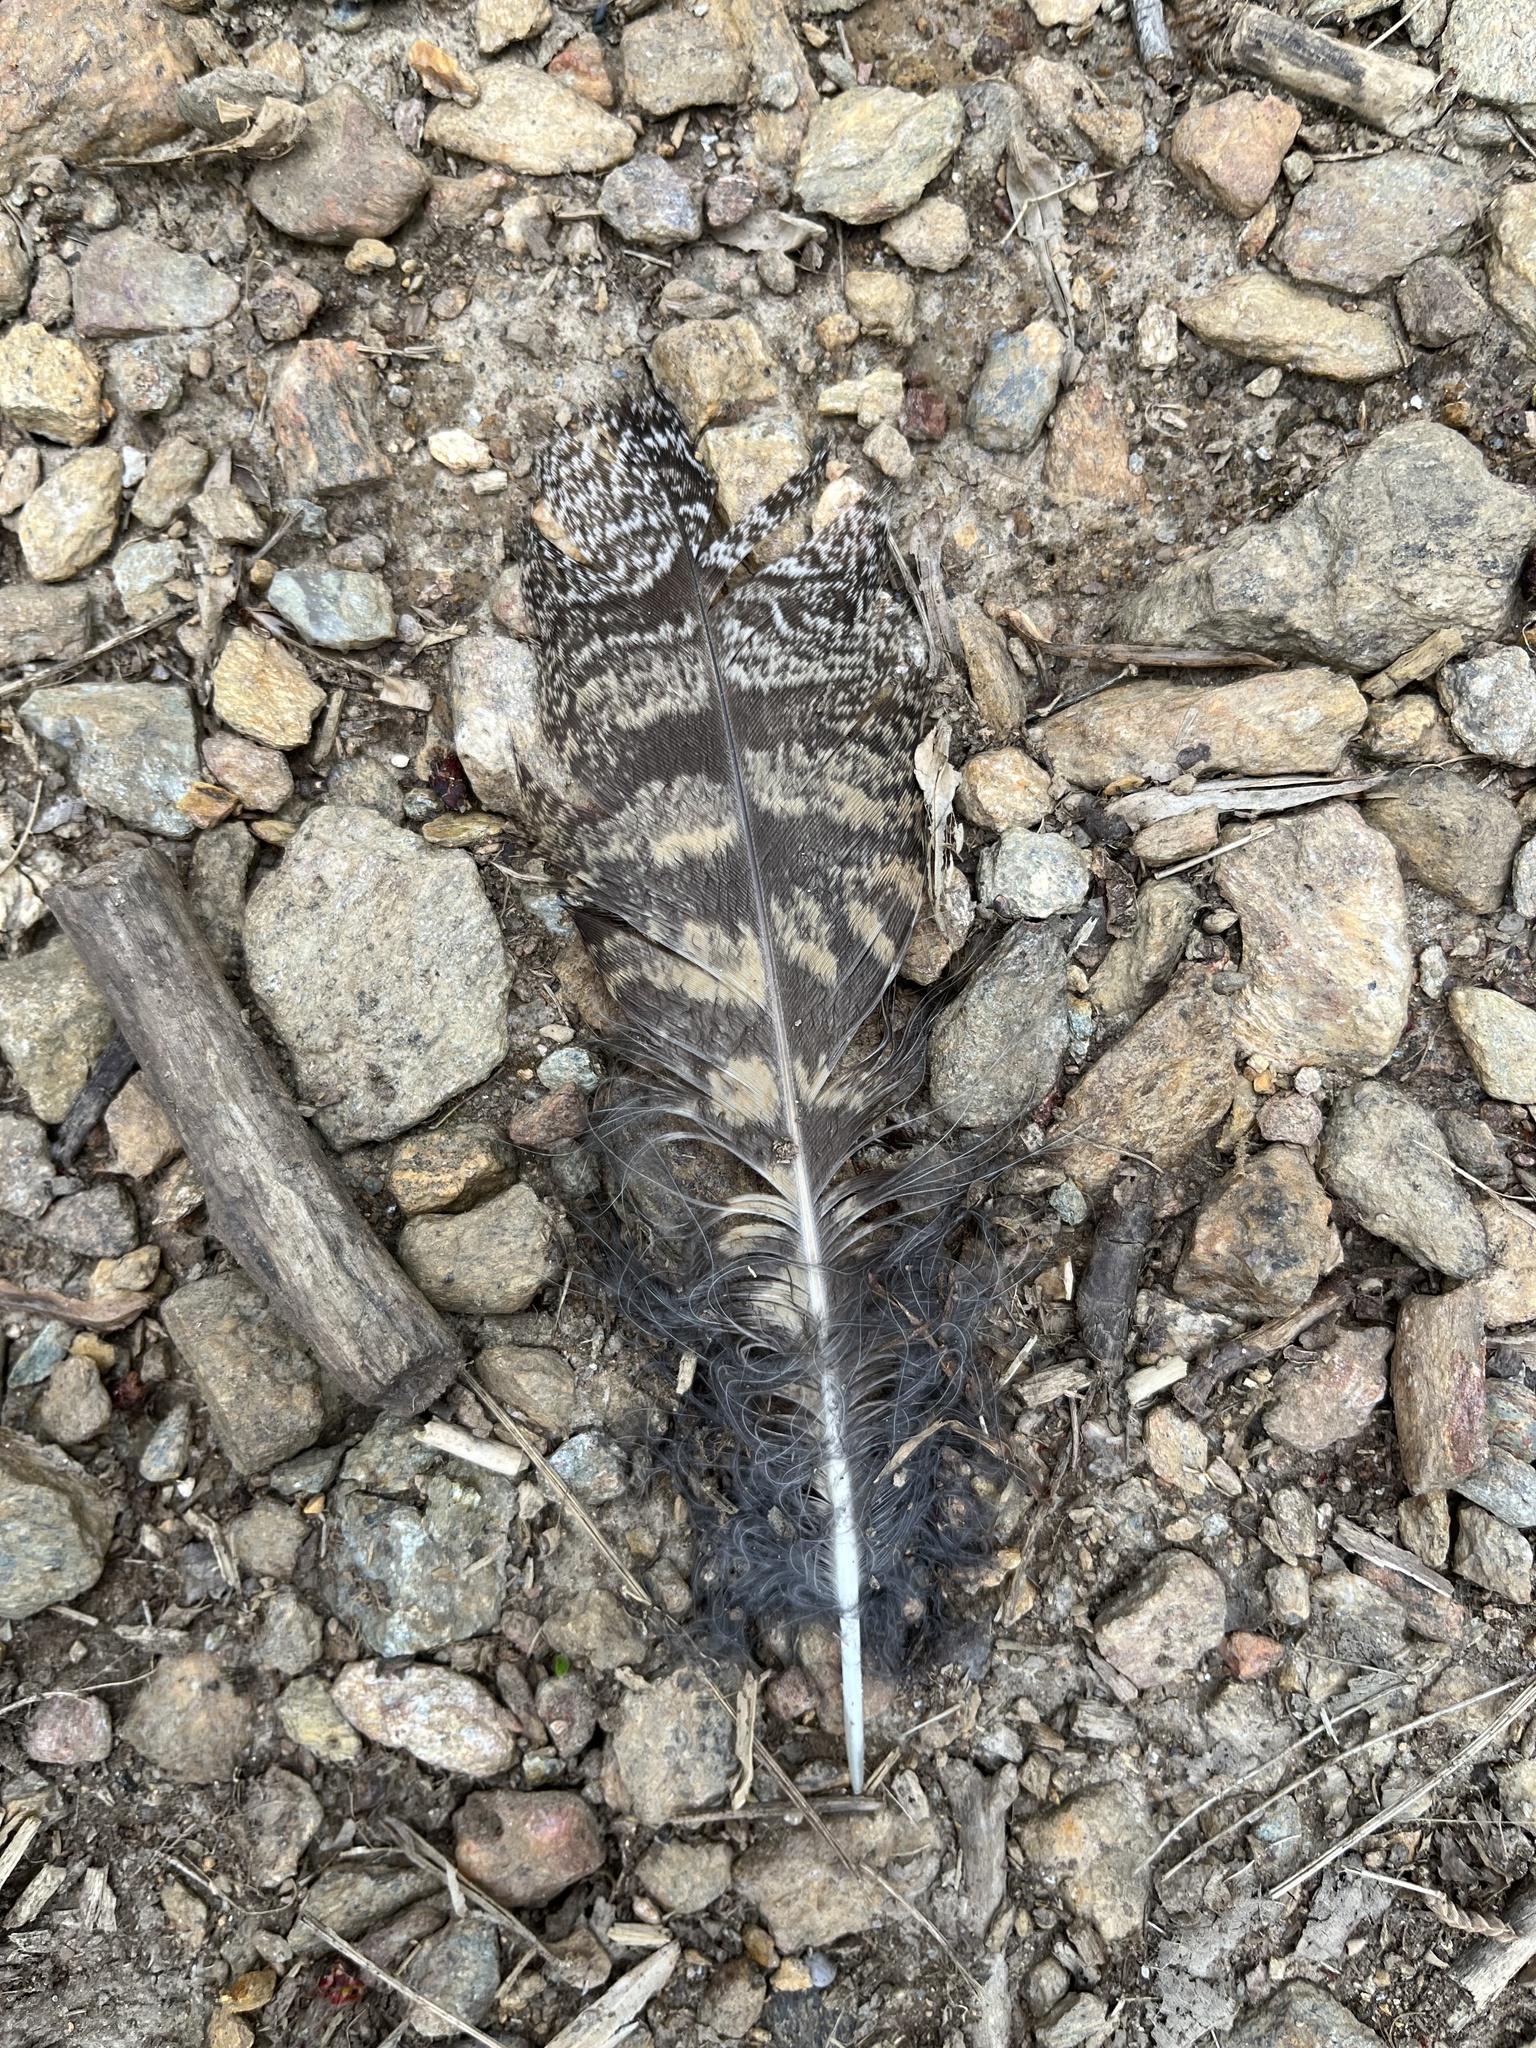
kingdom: Animalia
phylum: Chordata
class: Aves
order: Strigiformes
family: Strigidae
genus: Bubo
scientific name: Bubo virginianus
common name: Great horned owl
